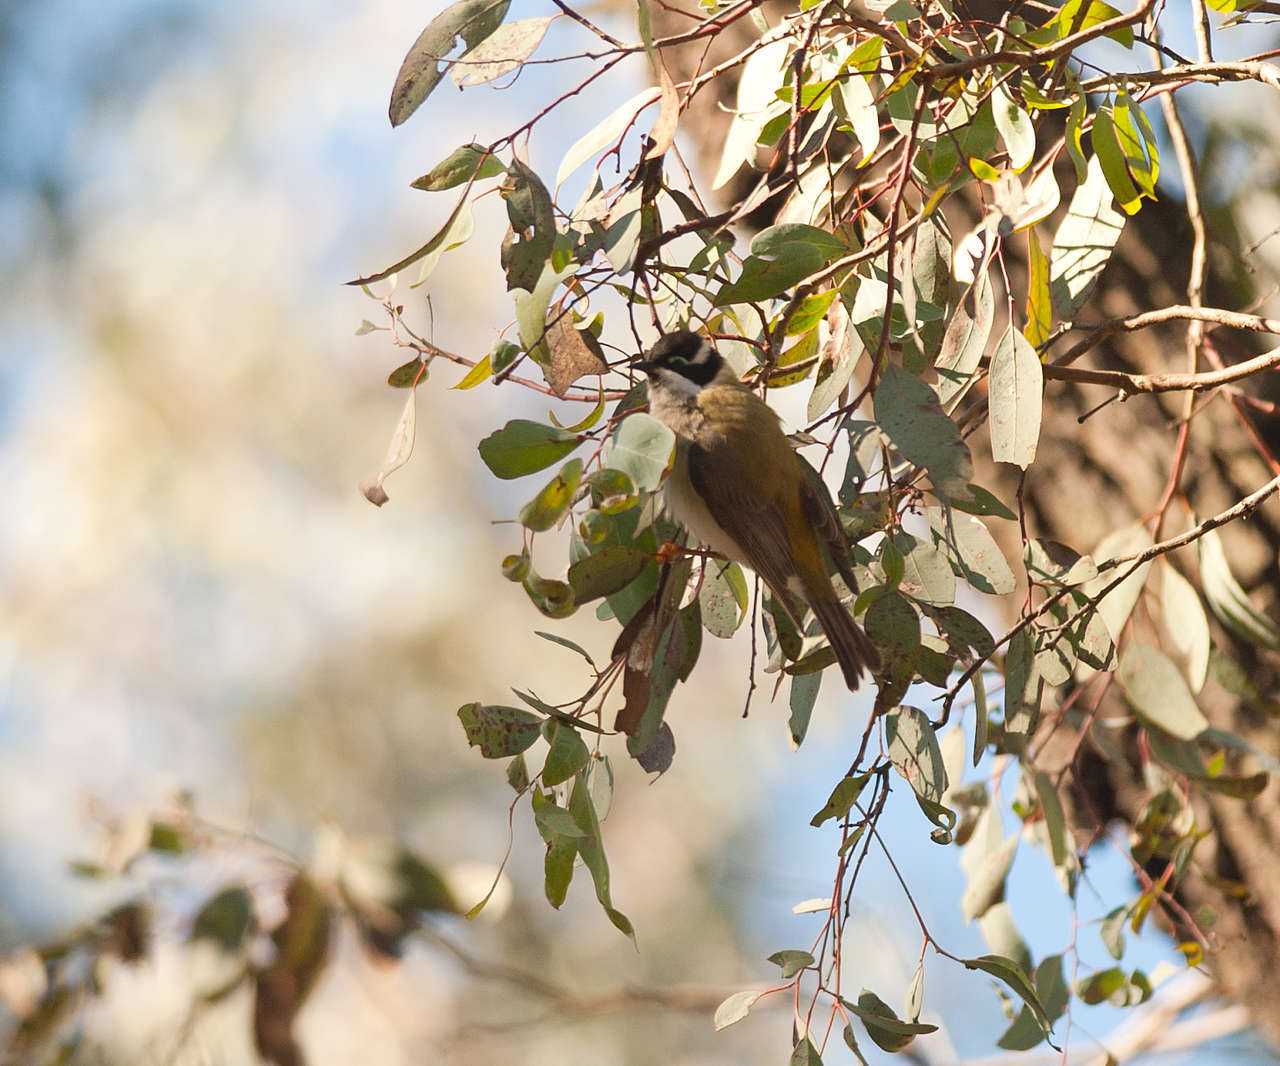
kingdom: Animalia
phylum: Chordata
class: Aves
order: Passeriformes
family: Meliphagidae
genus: Melithreptus
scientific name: Melithreptus gularis
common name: Black-chinned honeyeater
